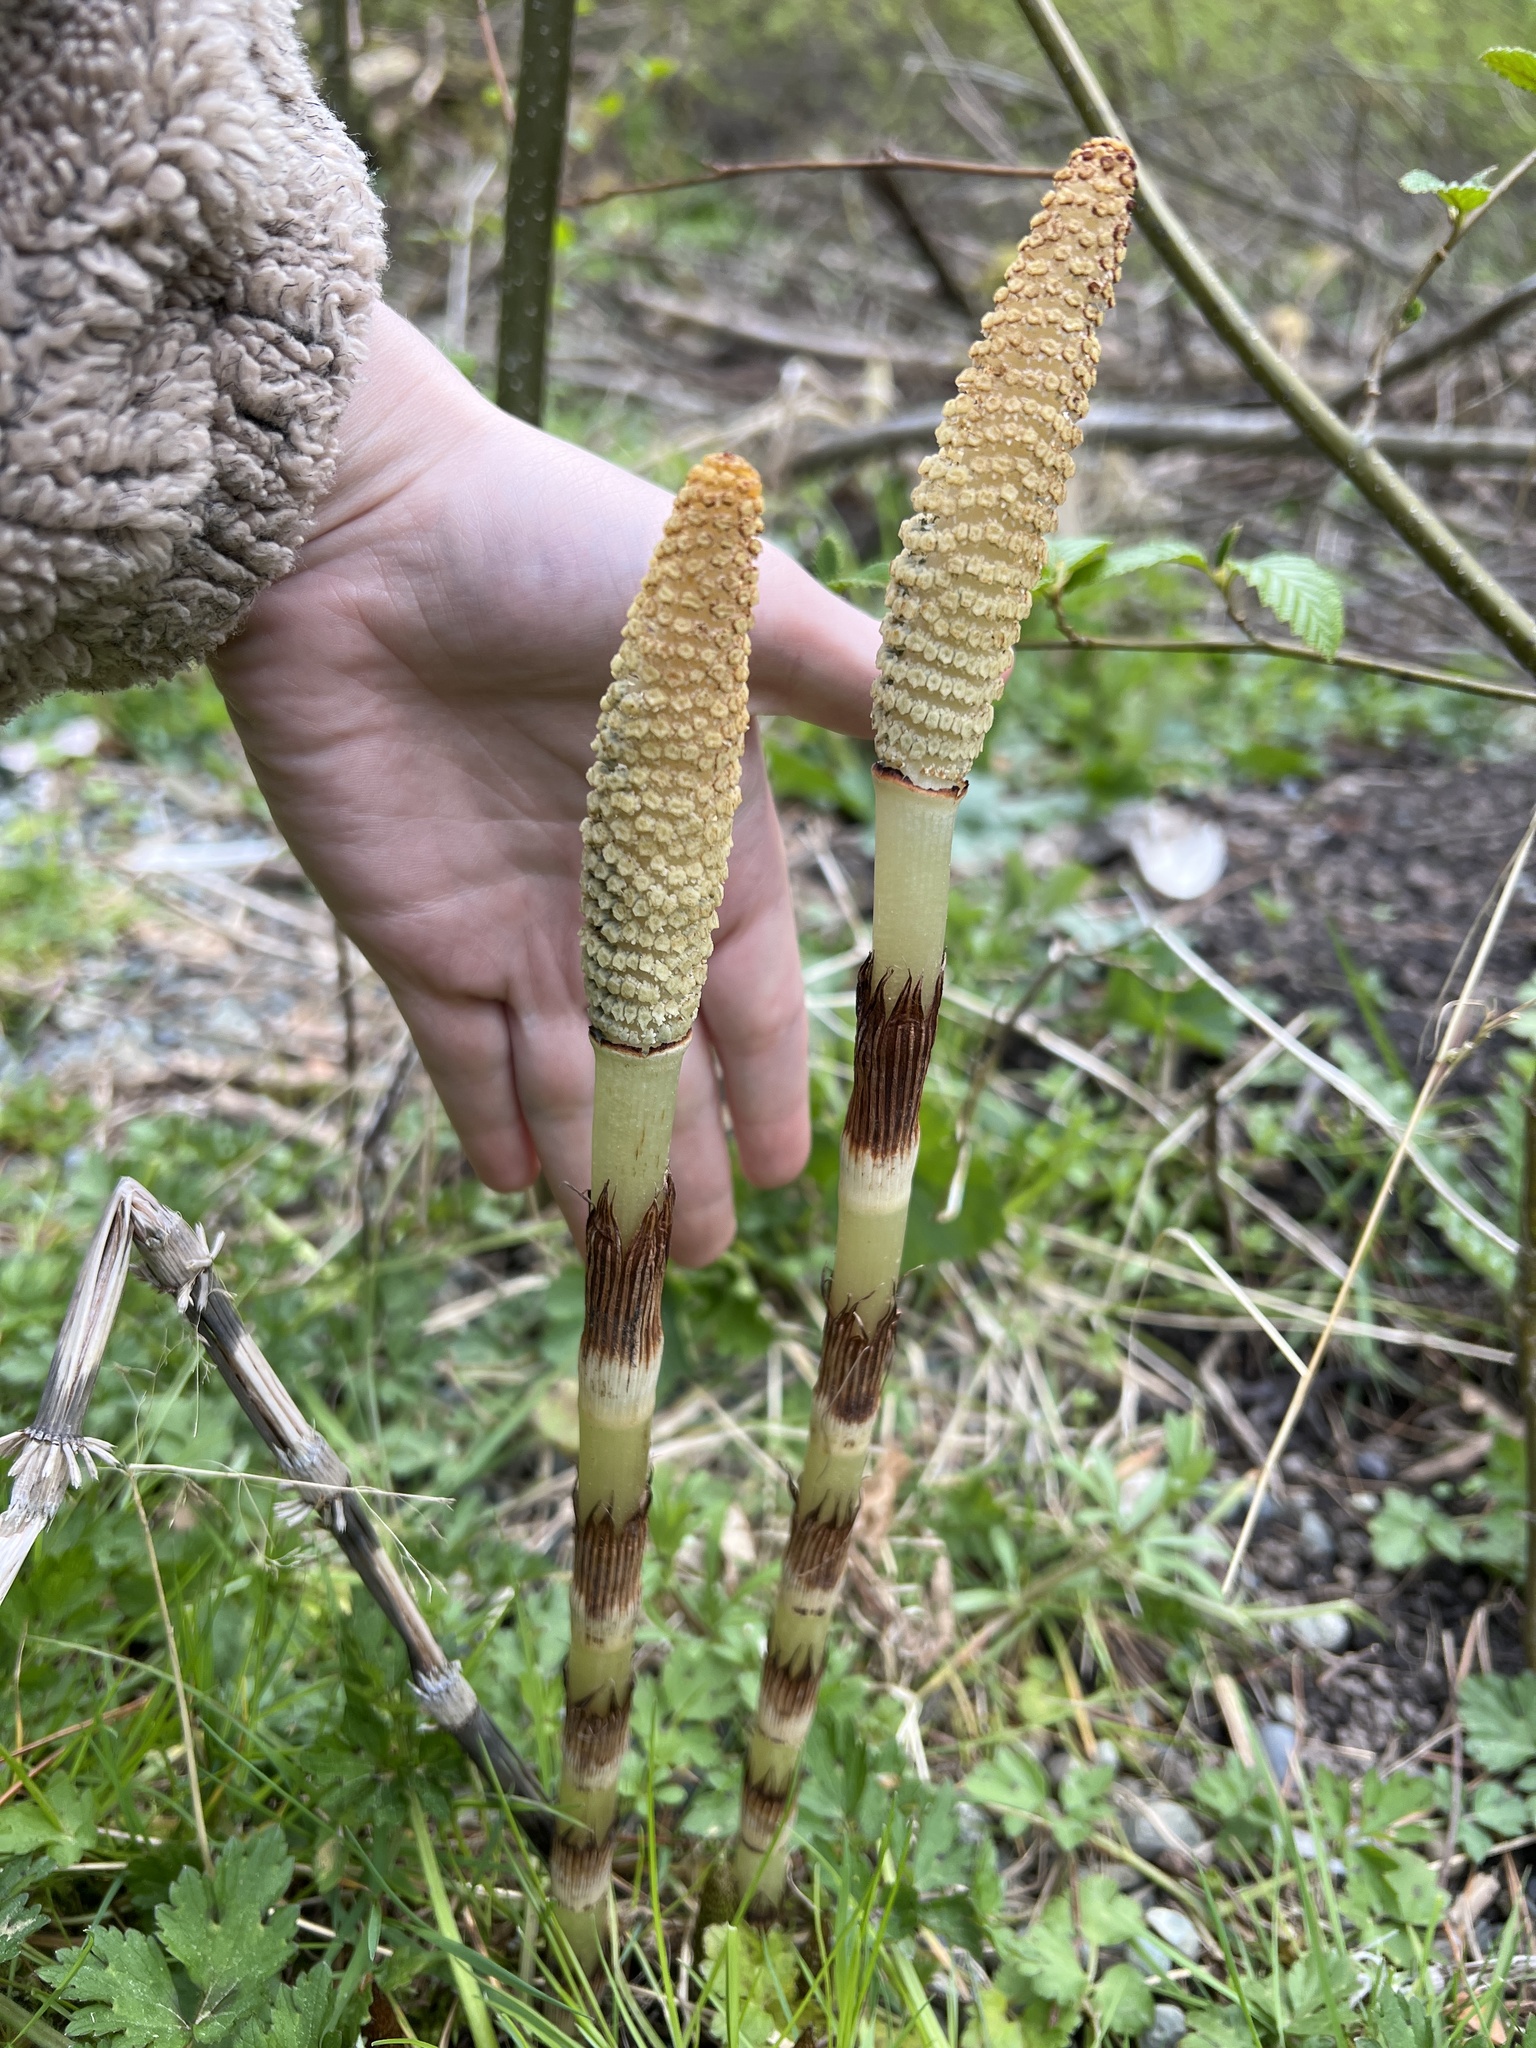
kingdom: Plantae
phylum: Tracheophyta
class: Polypodiopsida
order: Equisetales
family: Equisetaceae
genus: Equisetum
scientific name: Equisetum braunii
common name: Braun's horsetail
